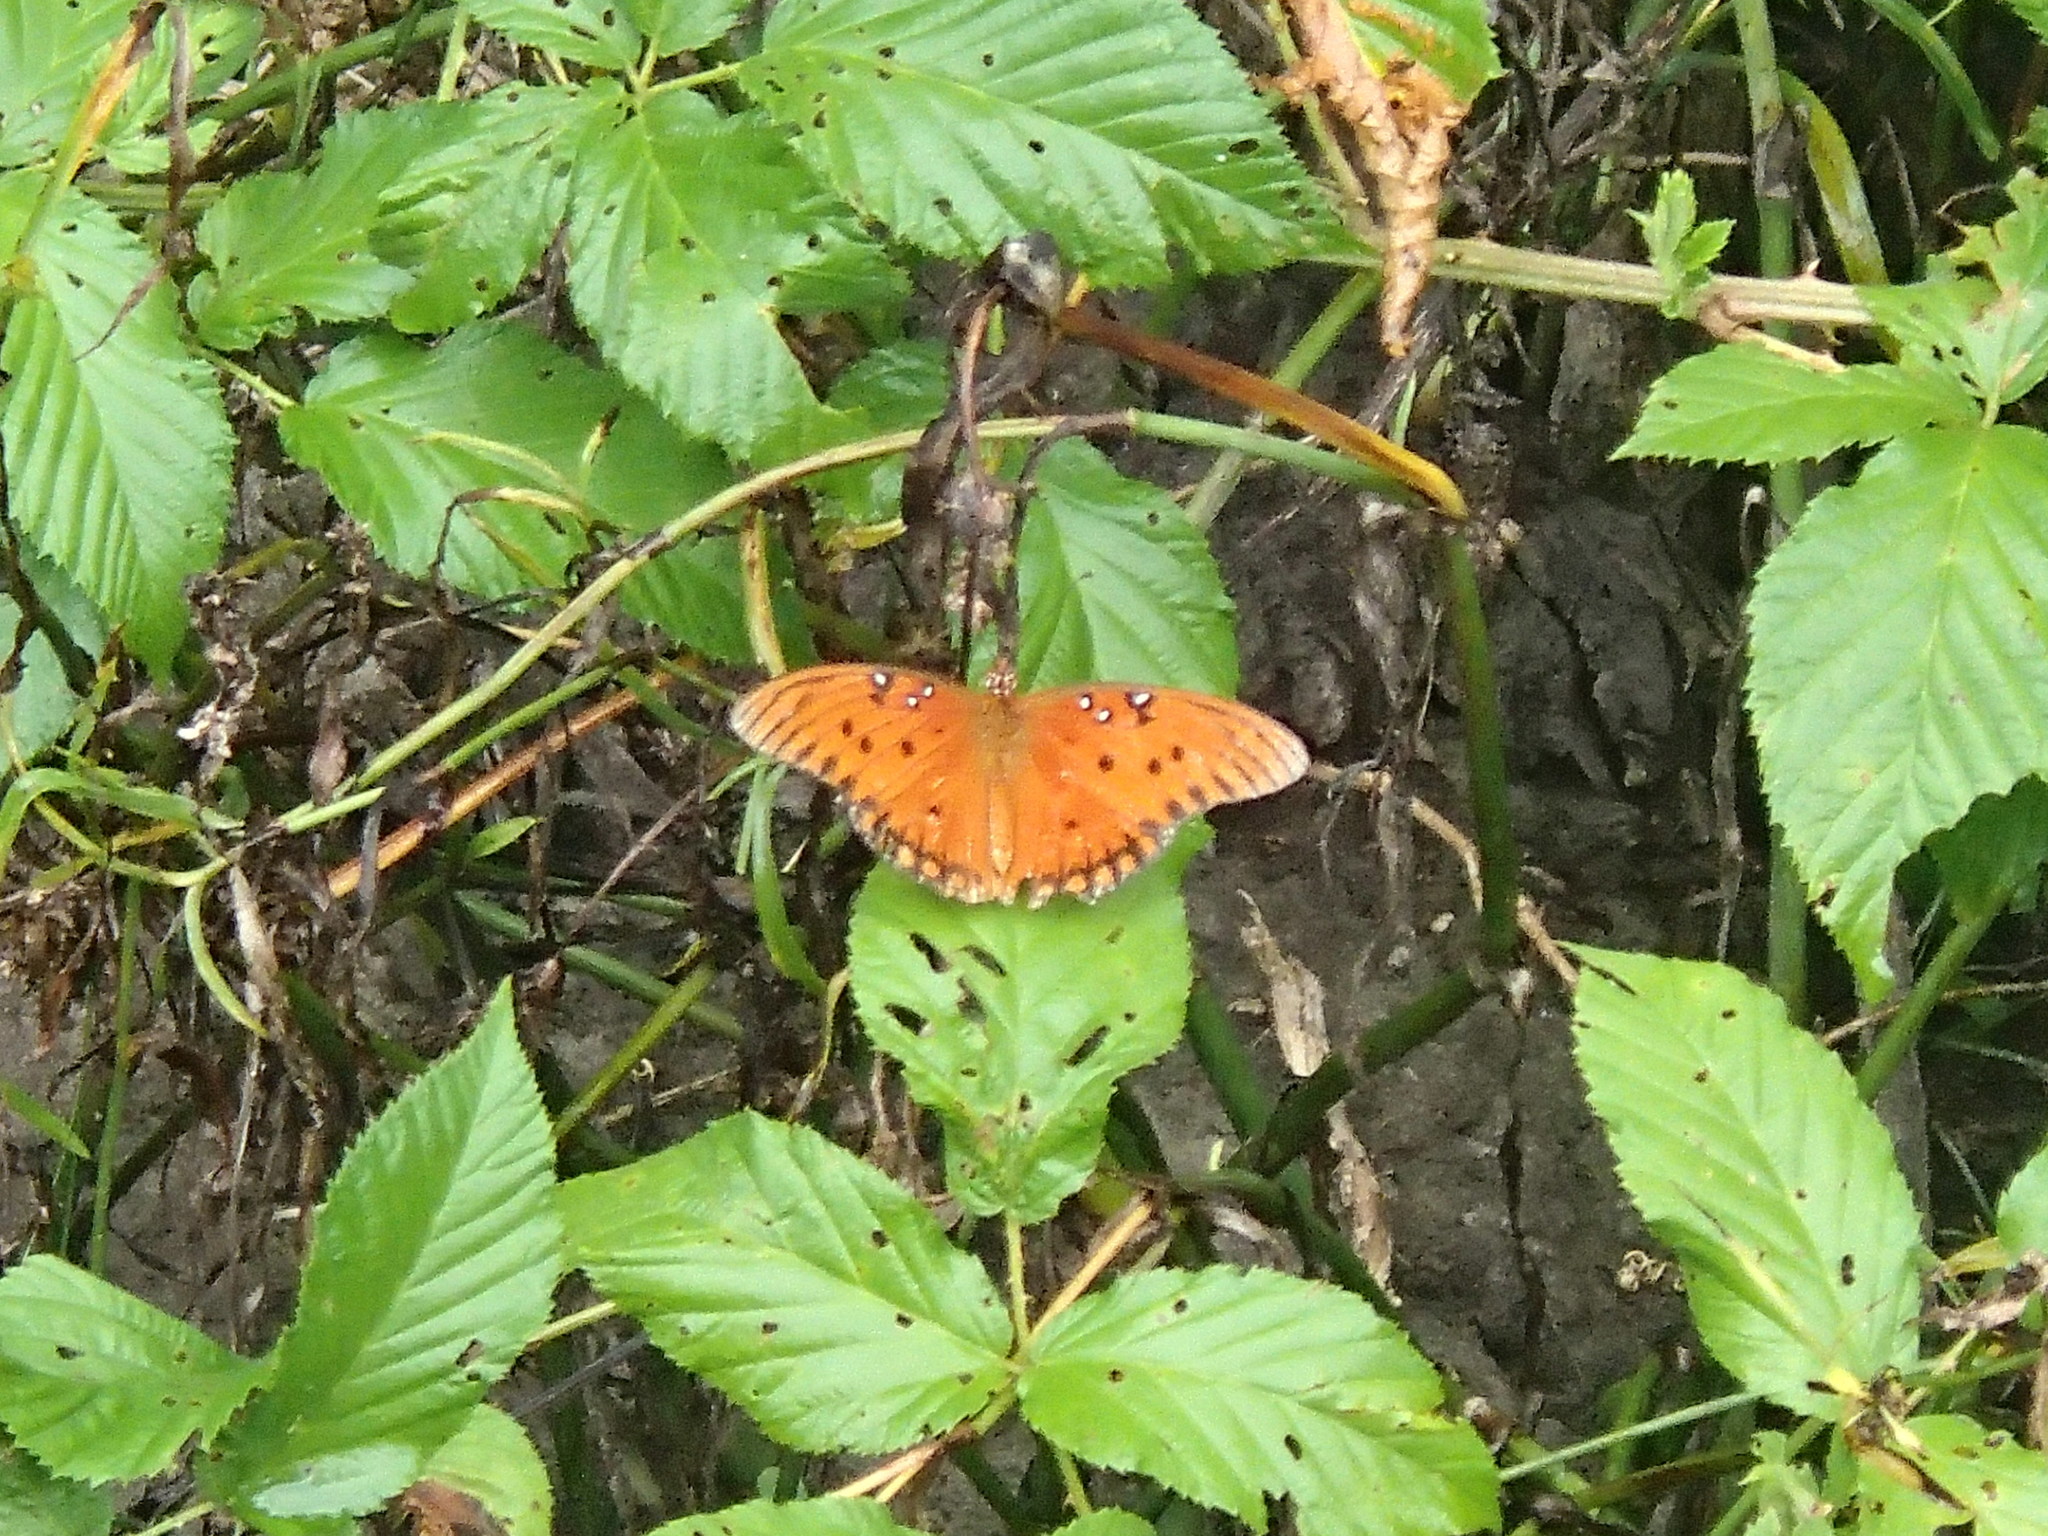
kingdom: Animalia
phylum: Arthropoda
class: Insecta
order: Lepidoptera
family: Nymphalidae
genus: Dione
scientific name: Dione vanillae
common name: Gulf fritillary
